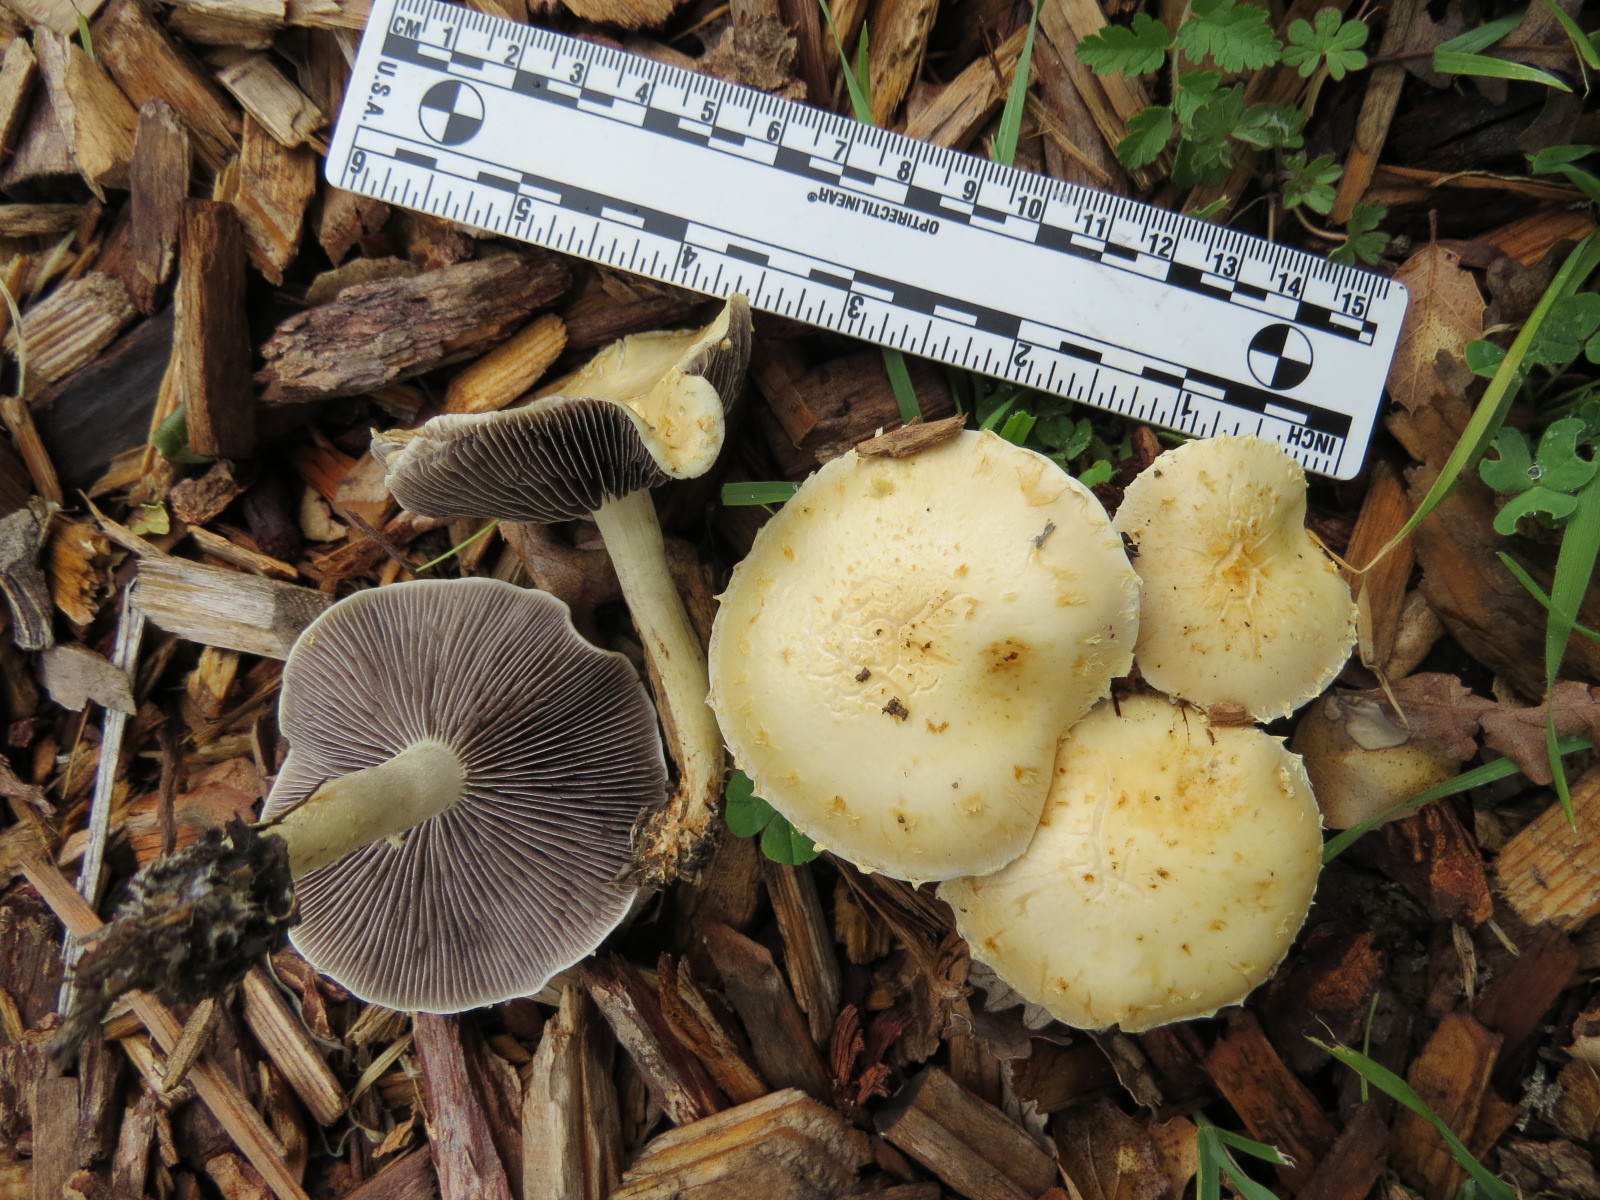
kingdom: Fungi
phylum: Basidiomycota
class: Agaricomycetes
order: Agaricales
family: Strophariaceae
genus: Leratiomyces
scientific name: Leratiomyces percevalii
